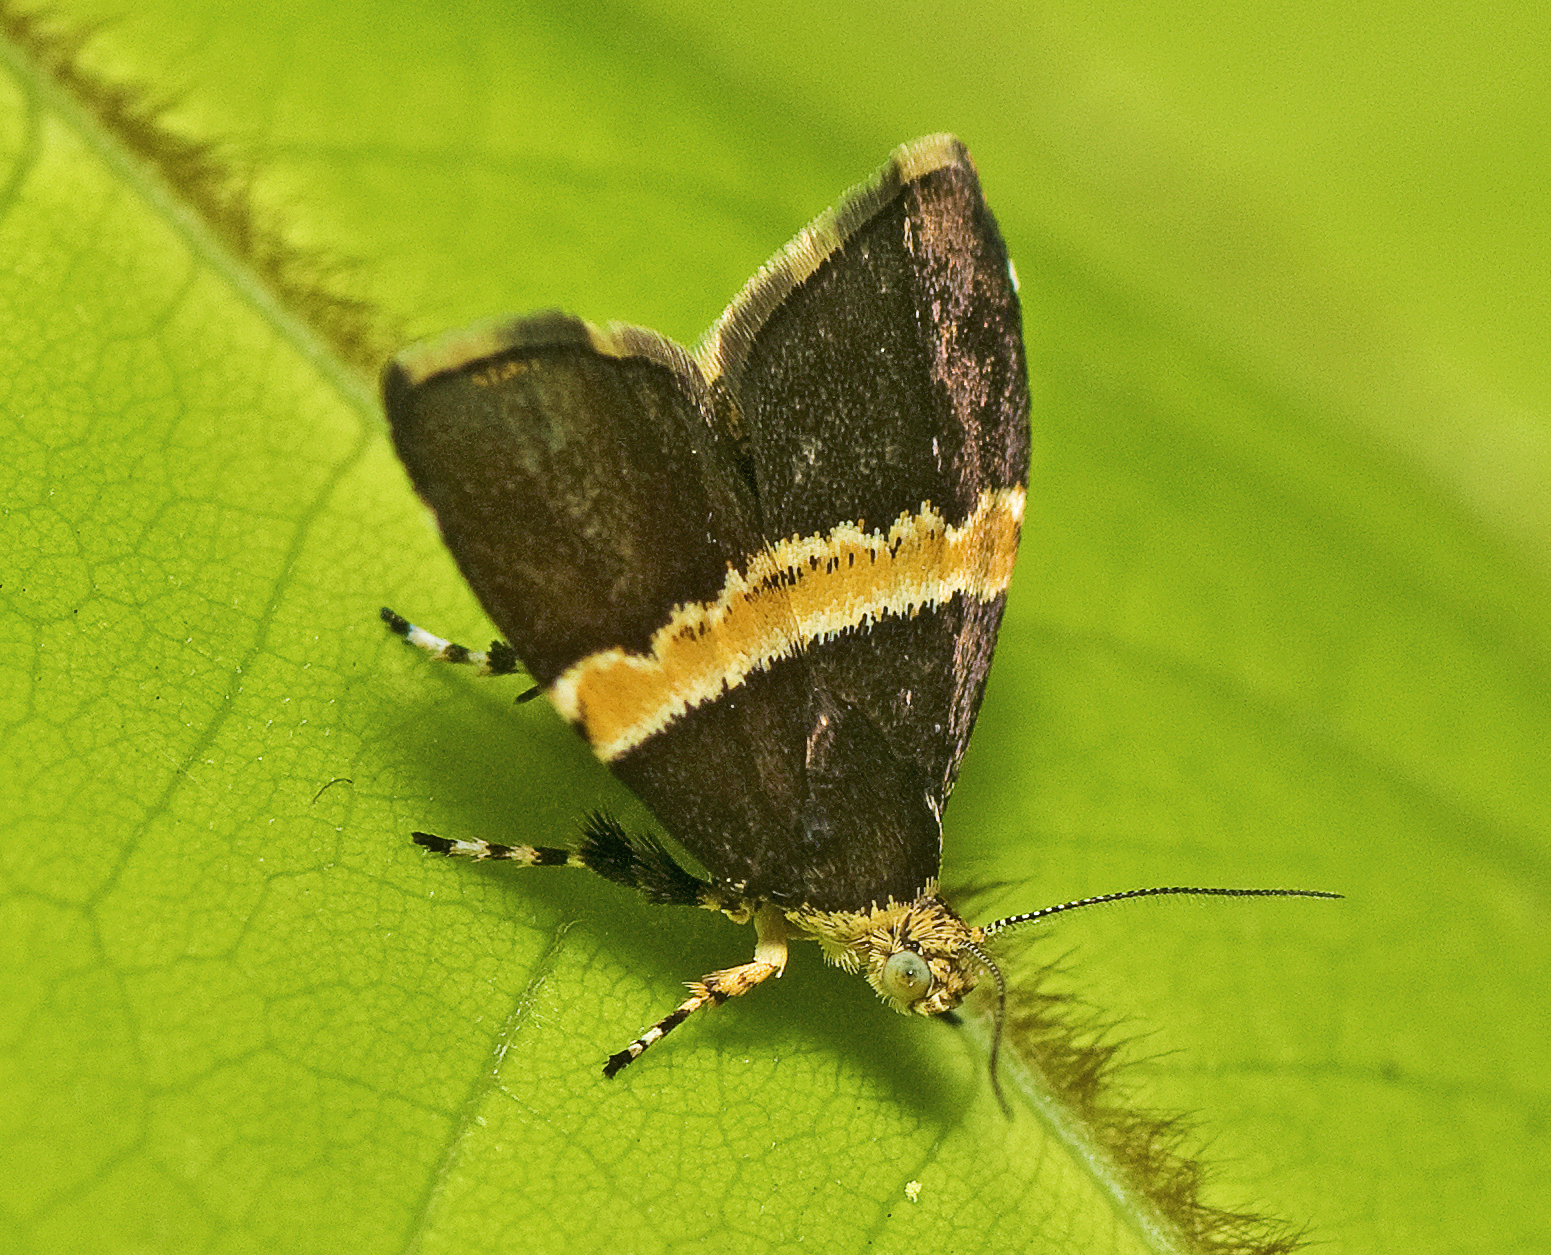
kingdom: Animalia
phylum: Arthropoda
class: Insecta
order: Lepidoptera
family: Choreutidae
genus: Choreutis
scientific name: Choreutis basalis
